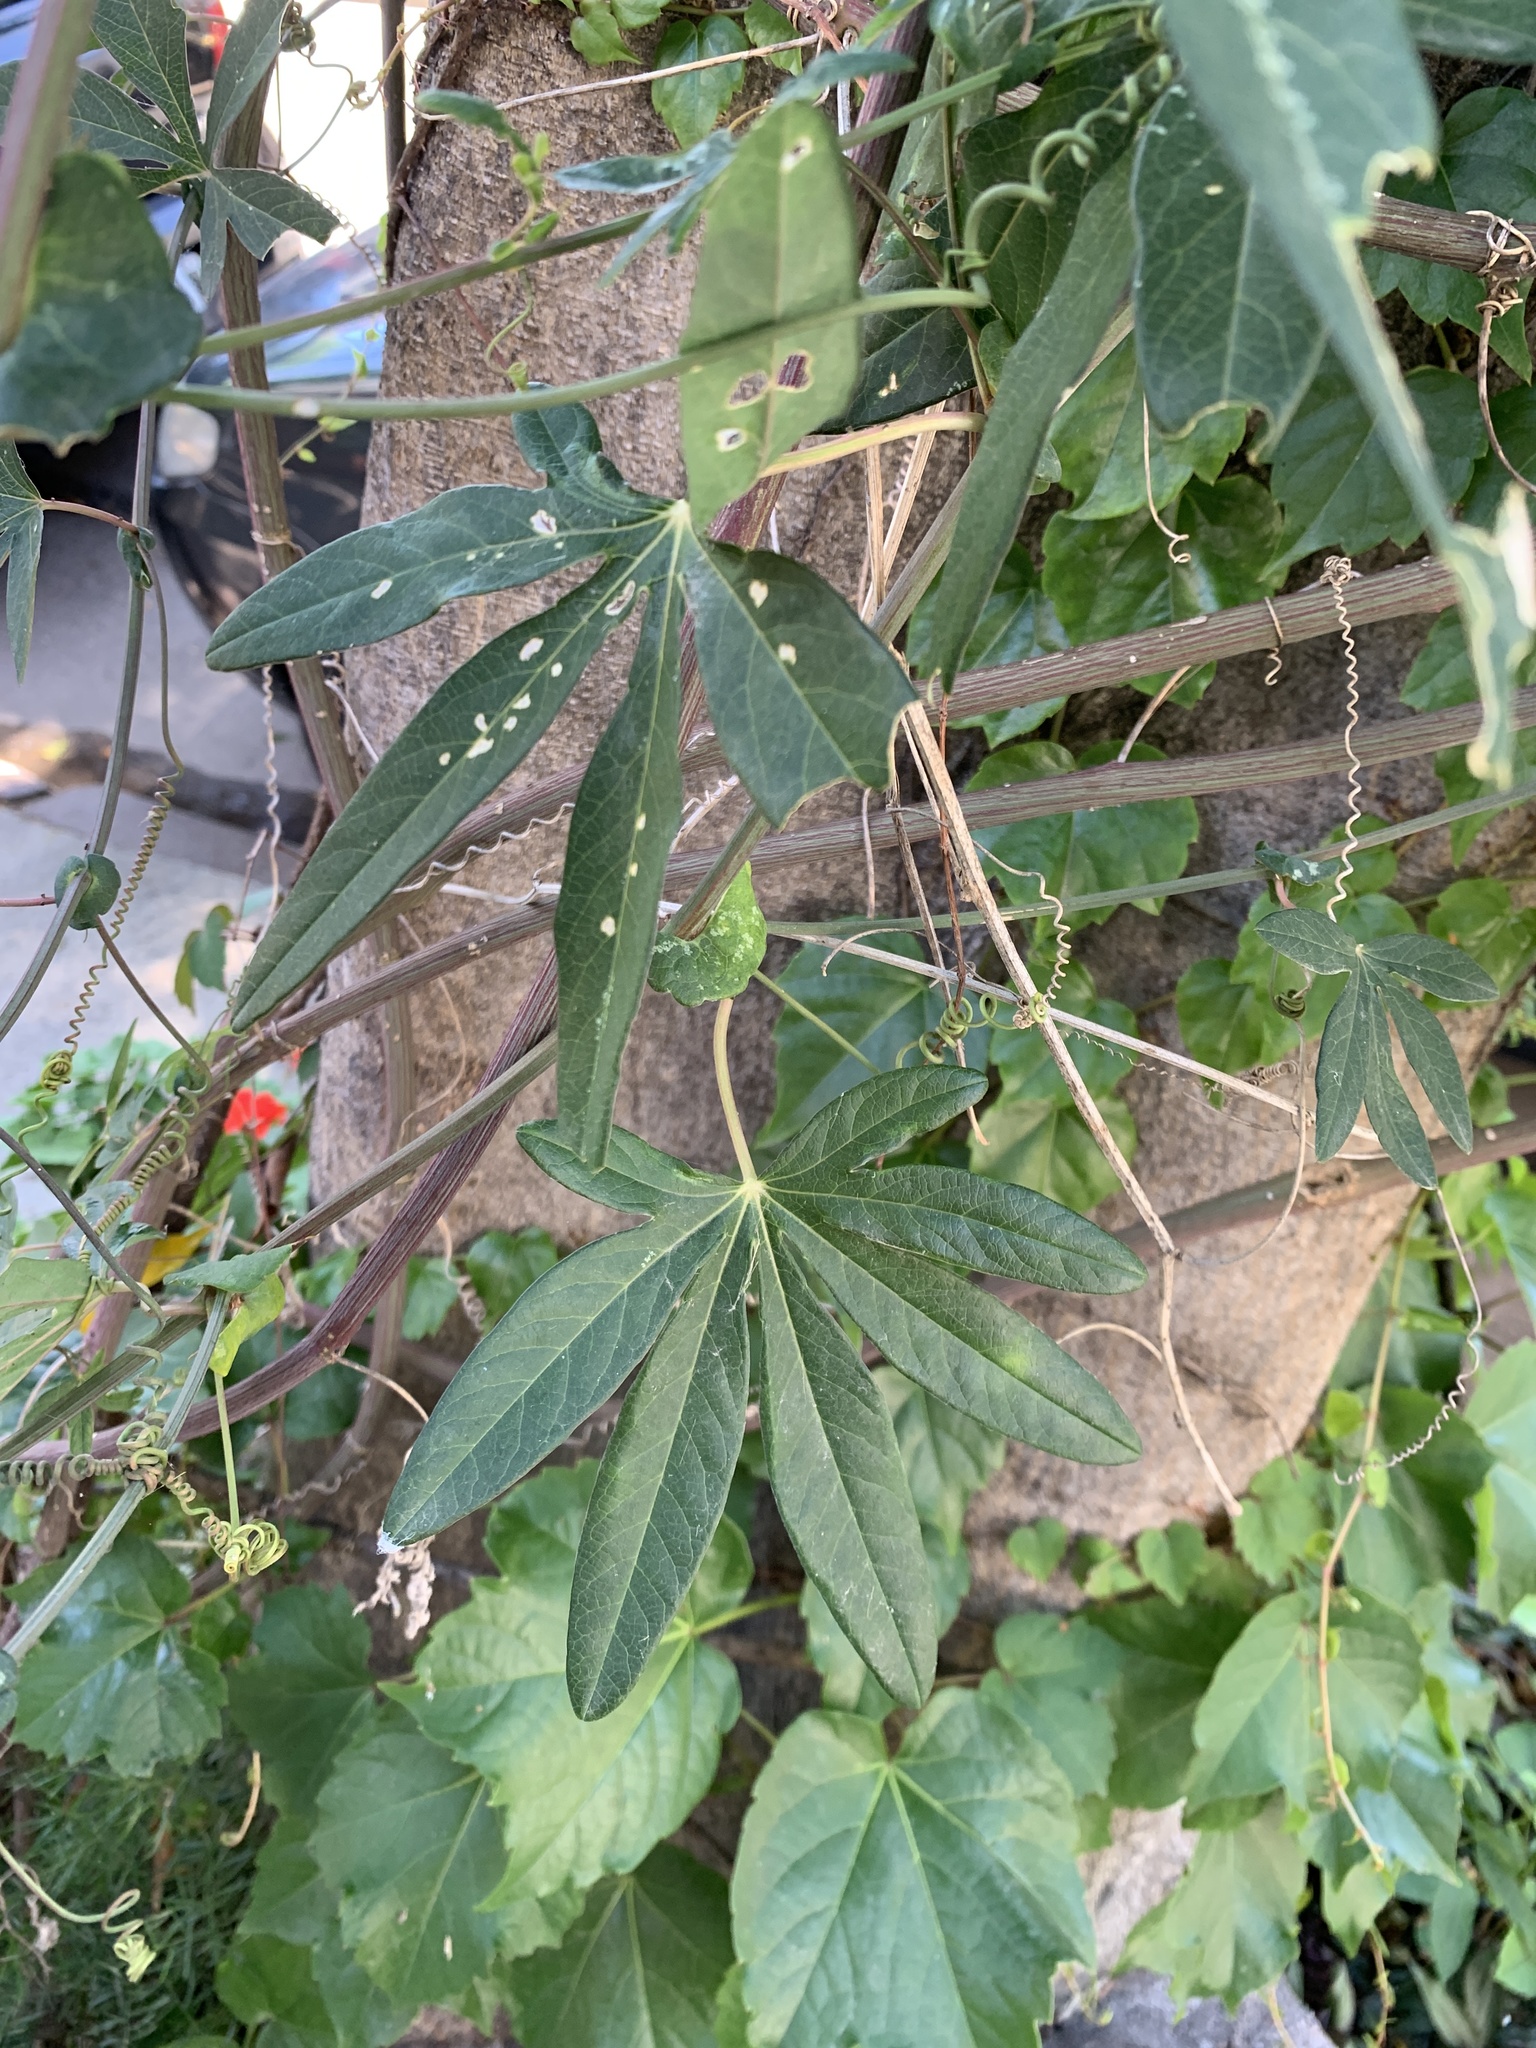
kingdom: Plantae
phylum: Tracheophyta
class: Magnoliopsida
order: Malpighiales
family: Passifloraceae
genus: Passiflora
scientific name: Passiflora caerulea
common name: Blue passionflower
